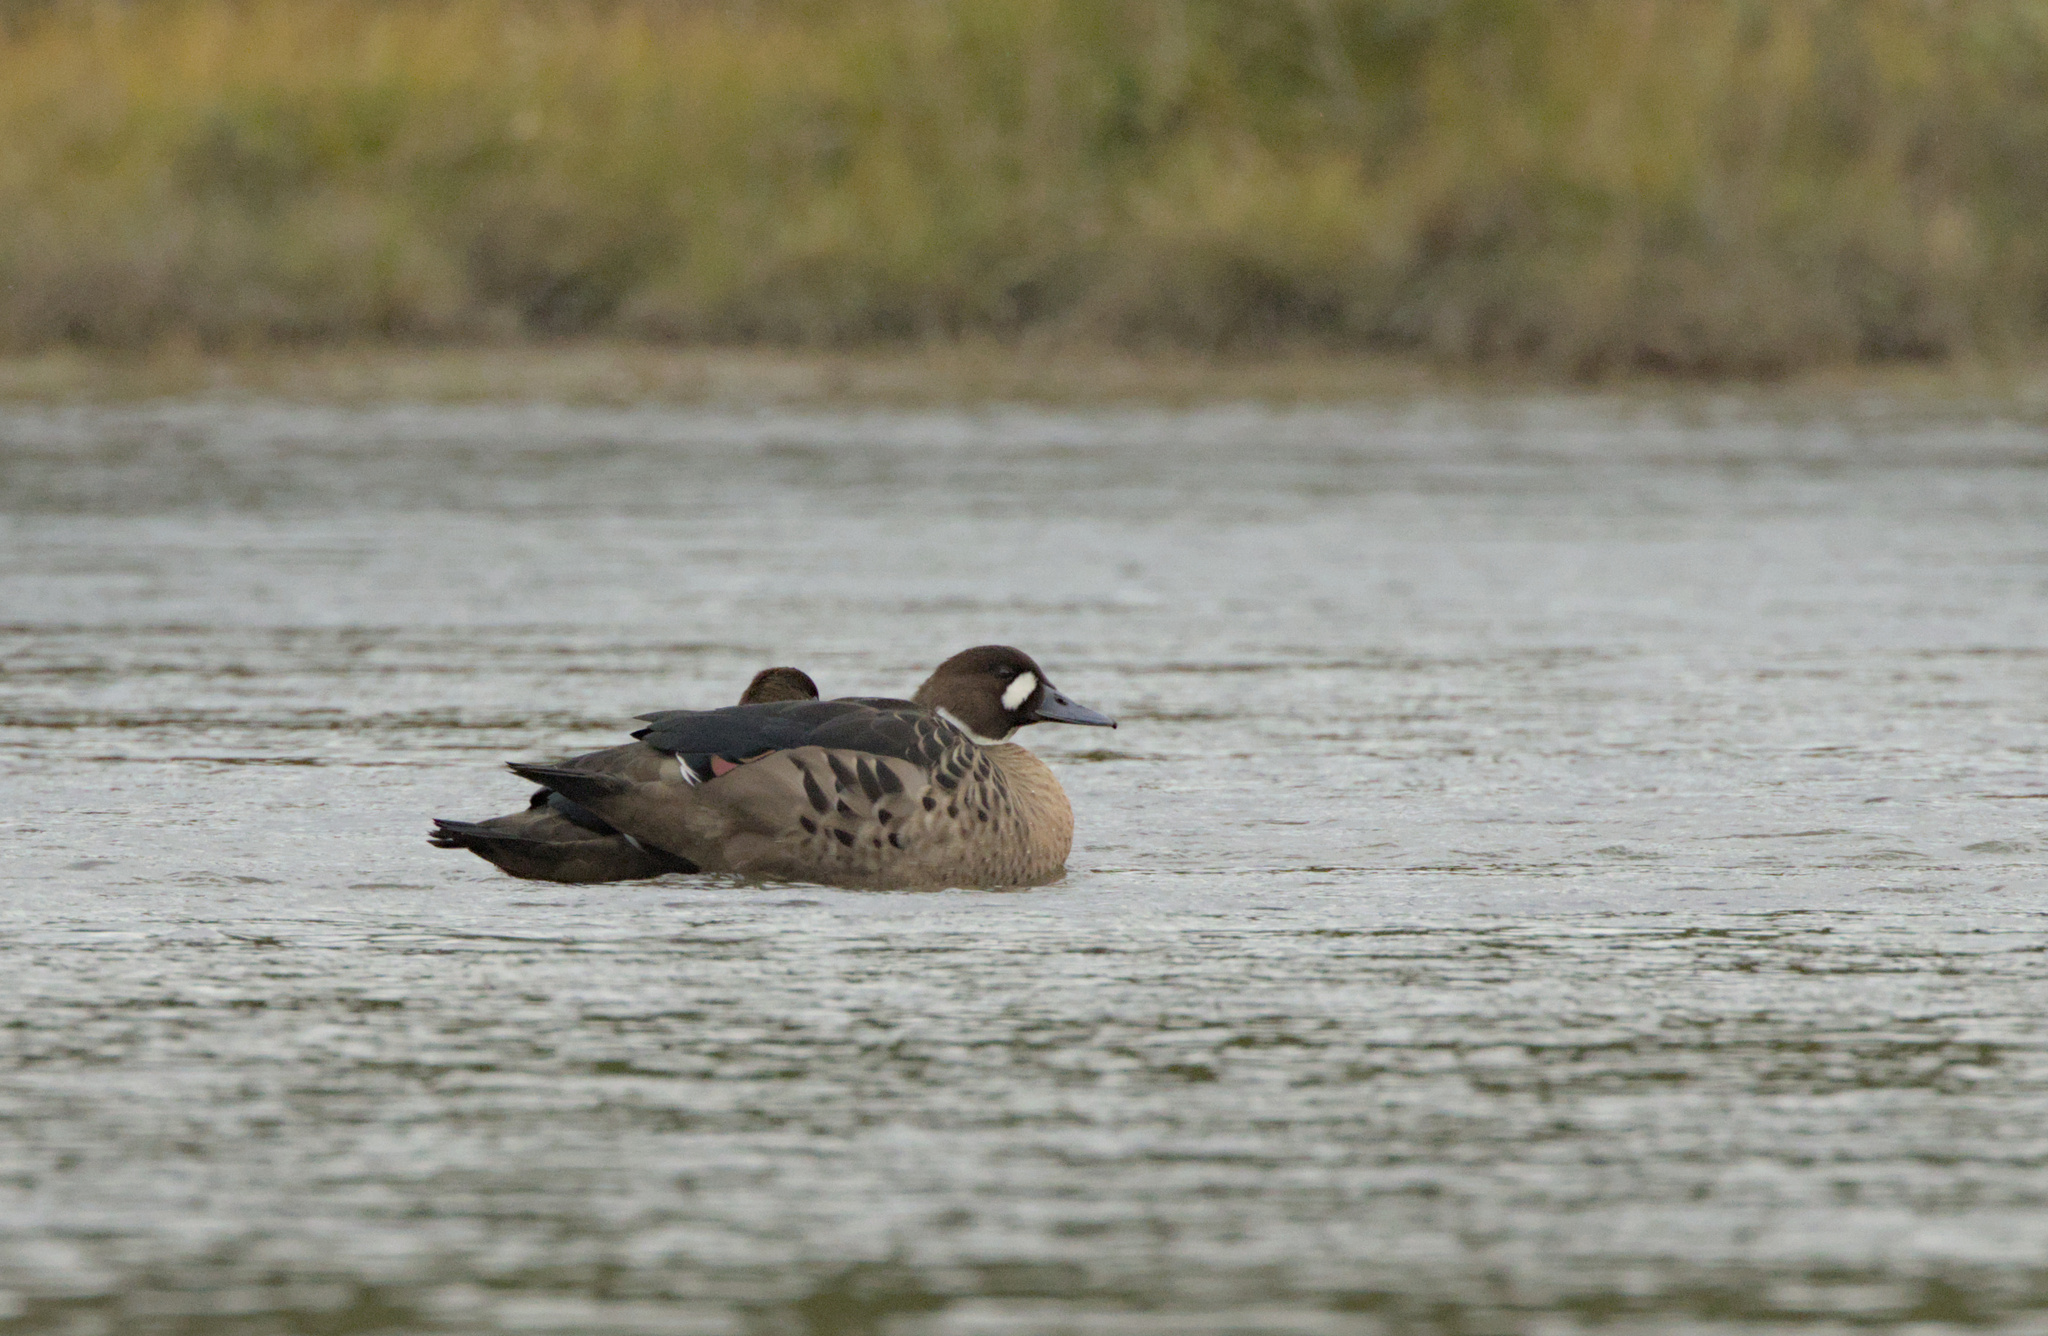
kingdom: Animalia
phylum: Chordata
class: Aves
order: Anseriformes
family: Anatidae
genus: Speculanas
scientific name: Speculanas specularis
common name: Bronze-winged duck
